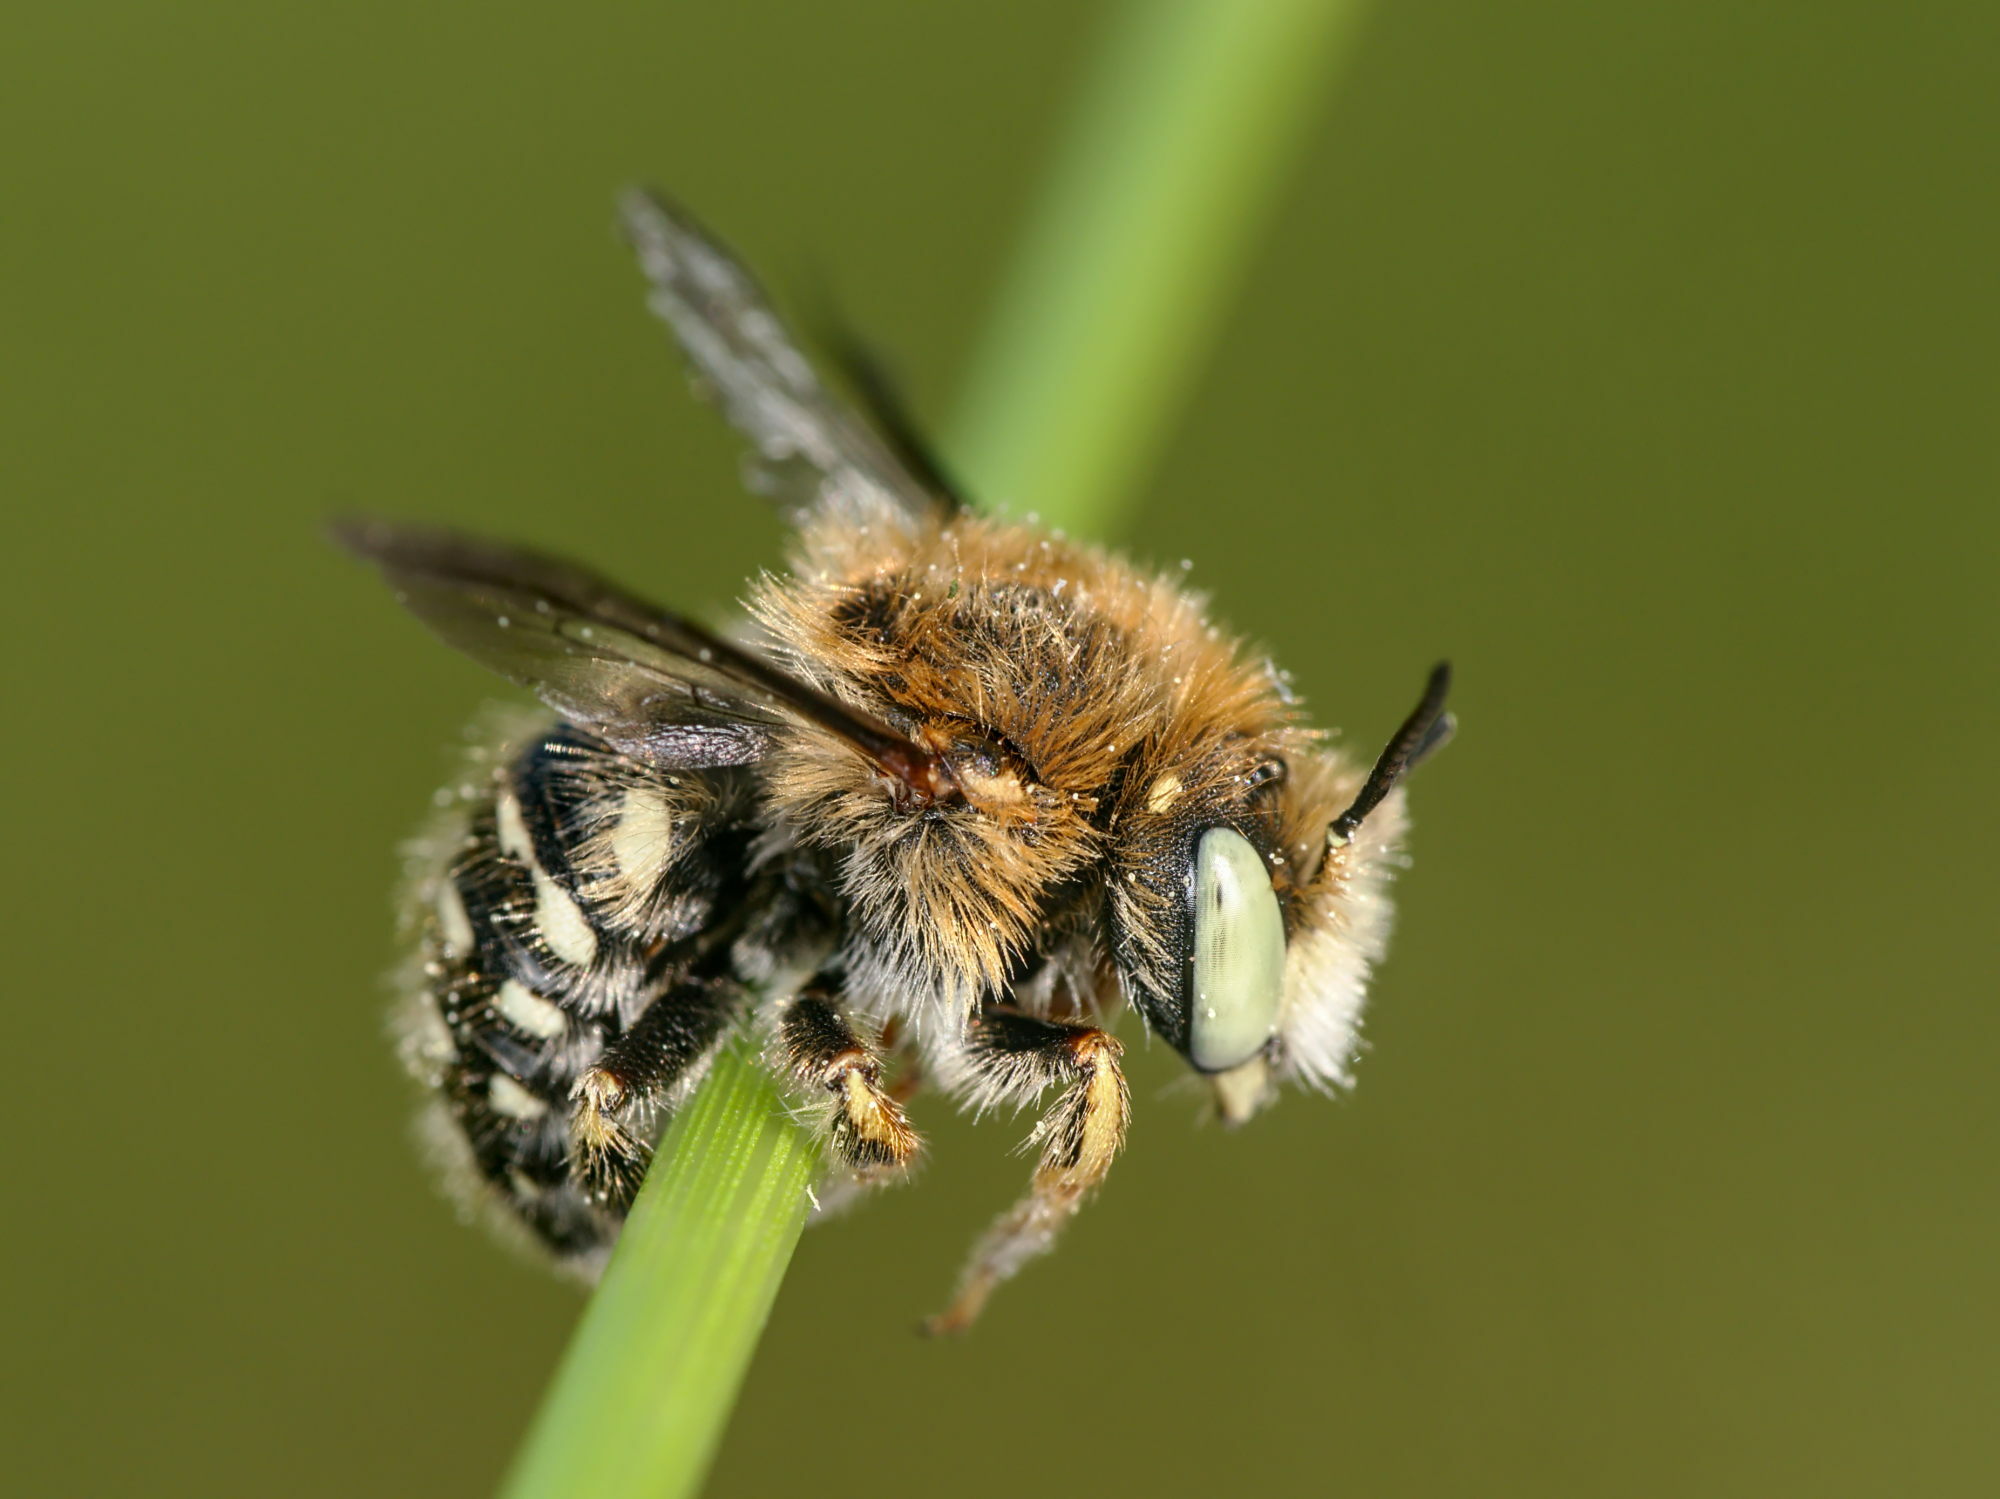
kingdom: Animalia
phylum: Arthropoda
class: Insecta
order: Hymenoptera
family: Megachilidae
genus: Anthidium
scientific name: Anthidium punctatum
